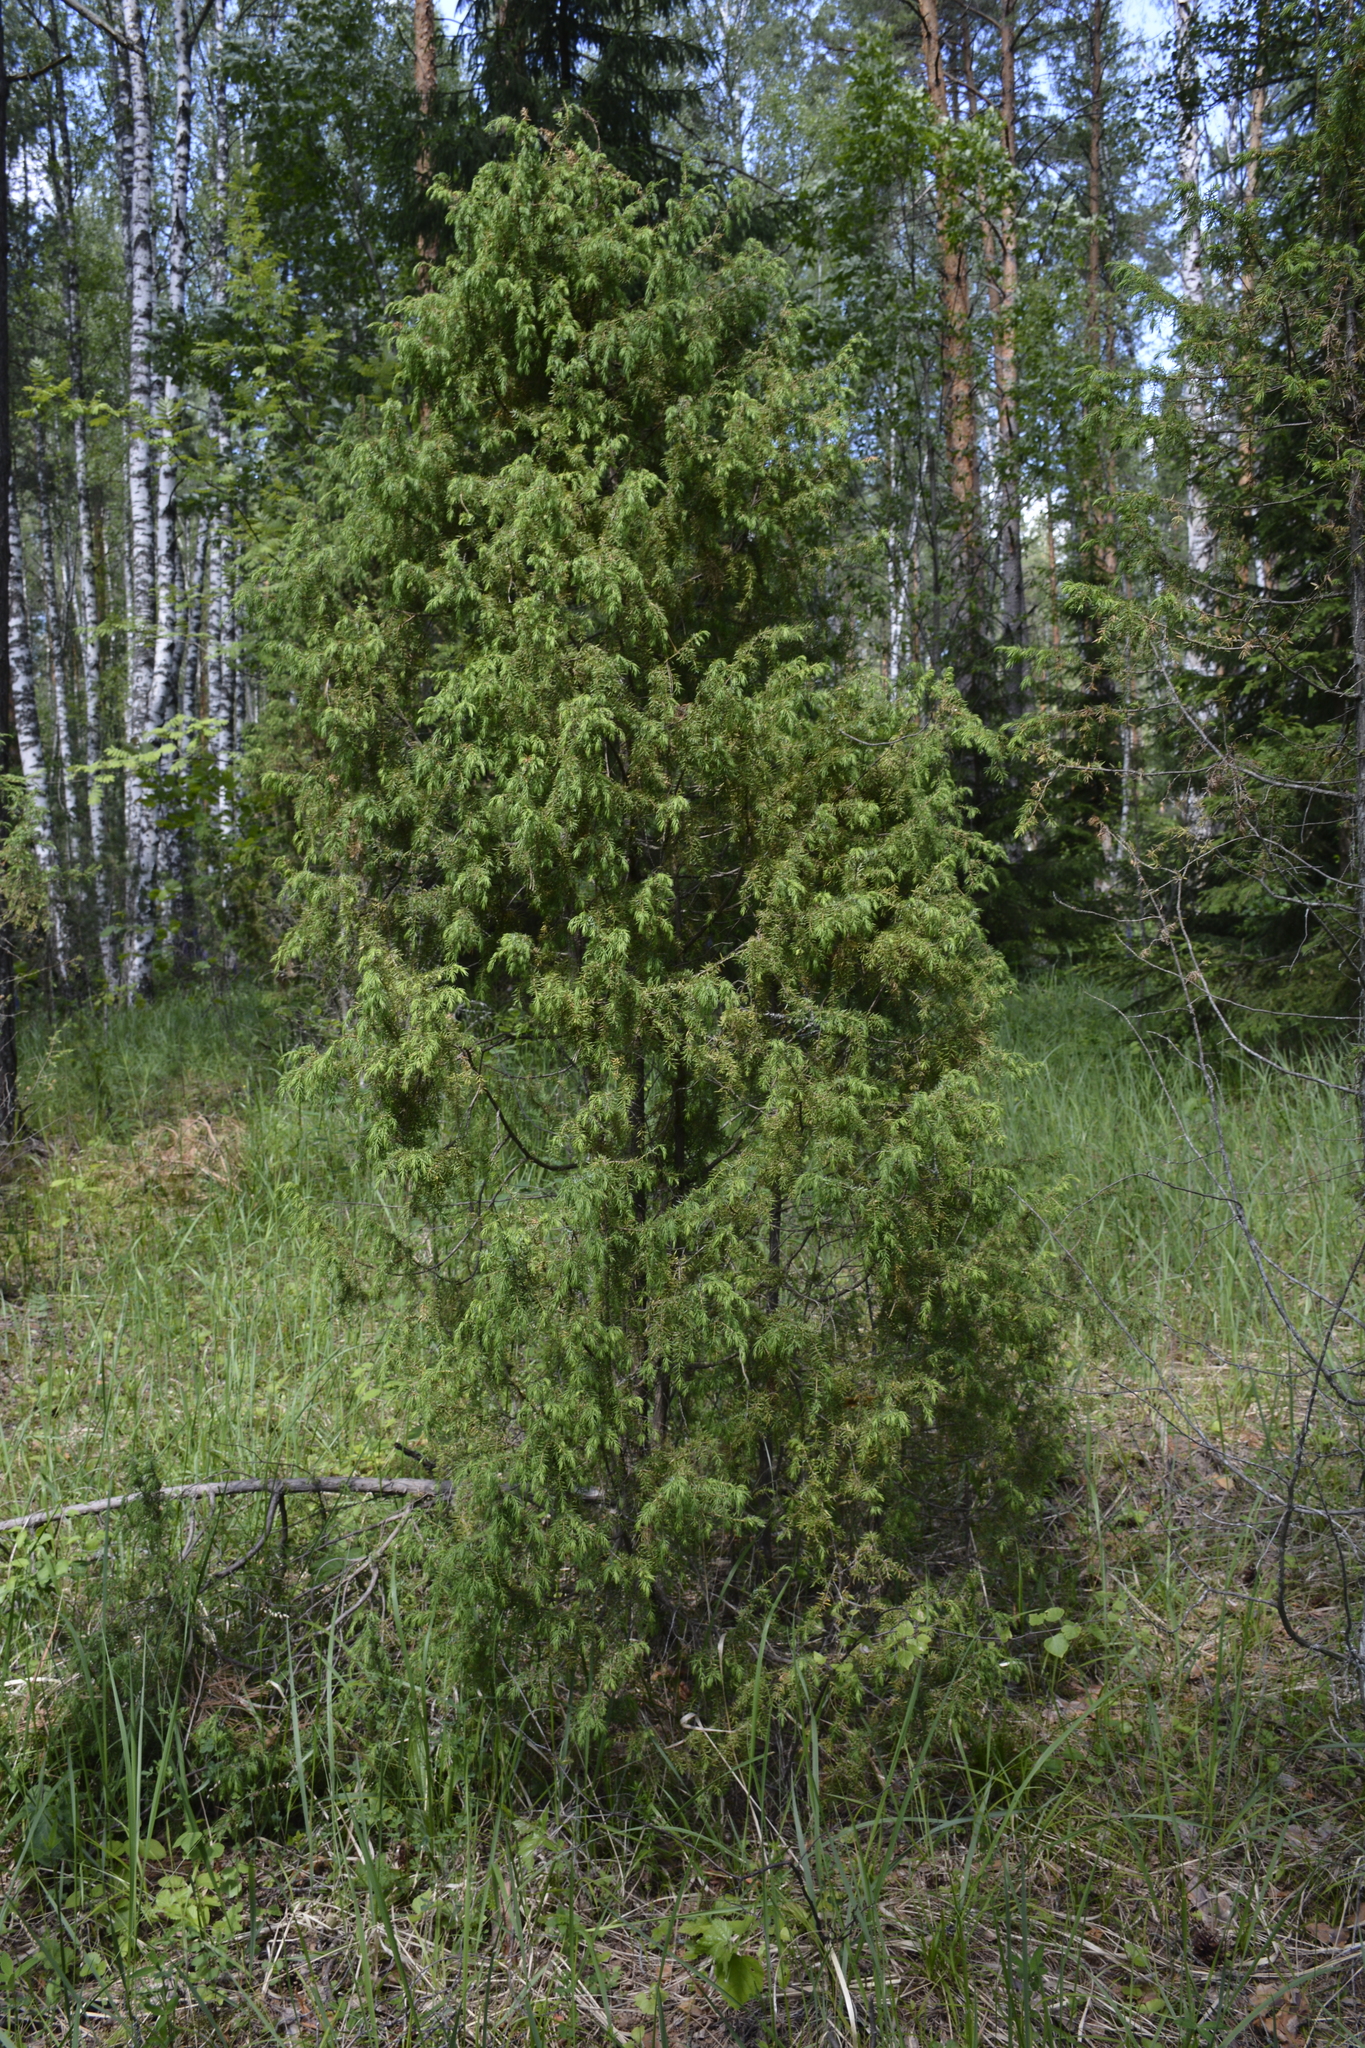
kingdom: Plantae
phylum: Tracheophyta
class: Pinopsida
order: Pinales
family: Cupressaceae
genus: Juniperus
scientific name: Juniperus communis
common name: Common juniper
